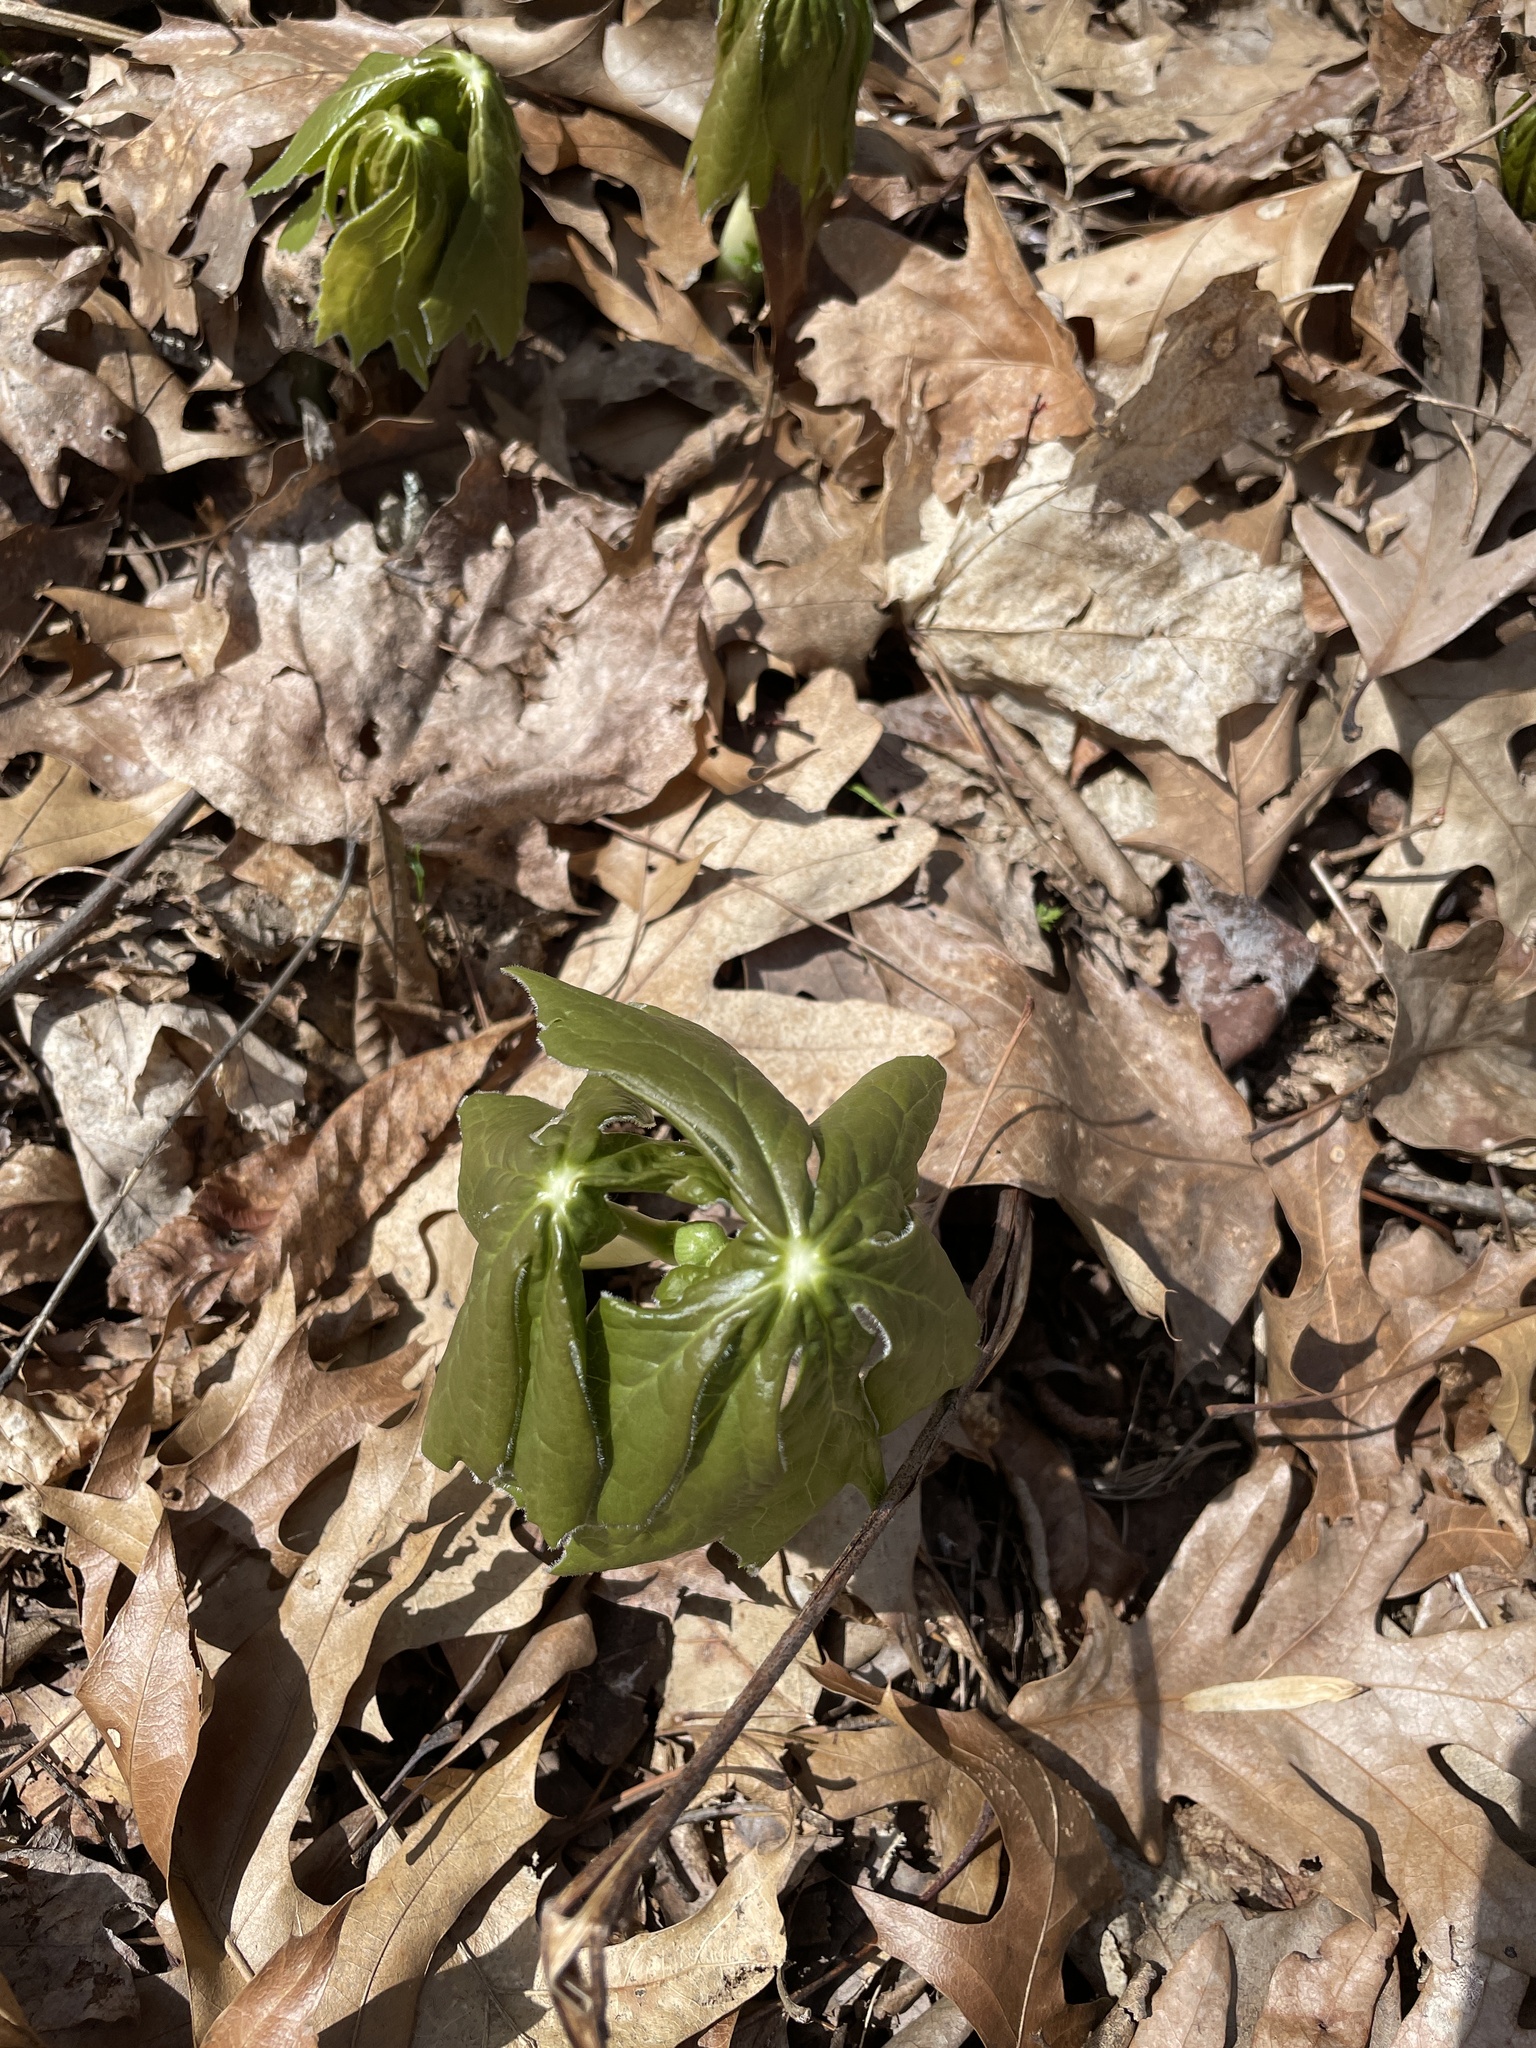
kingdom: Plantae
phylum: Tracheophyta
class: Magnoliopsida
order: Ranunculales
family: Berberidaceae
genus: Podophyllum
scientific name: Podophyllum peltatum
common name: Wild mandrake
